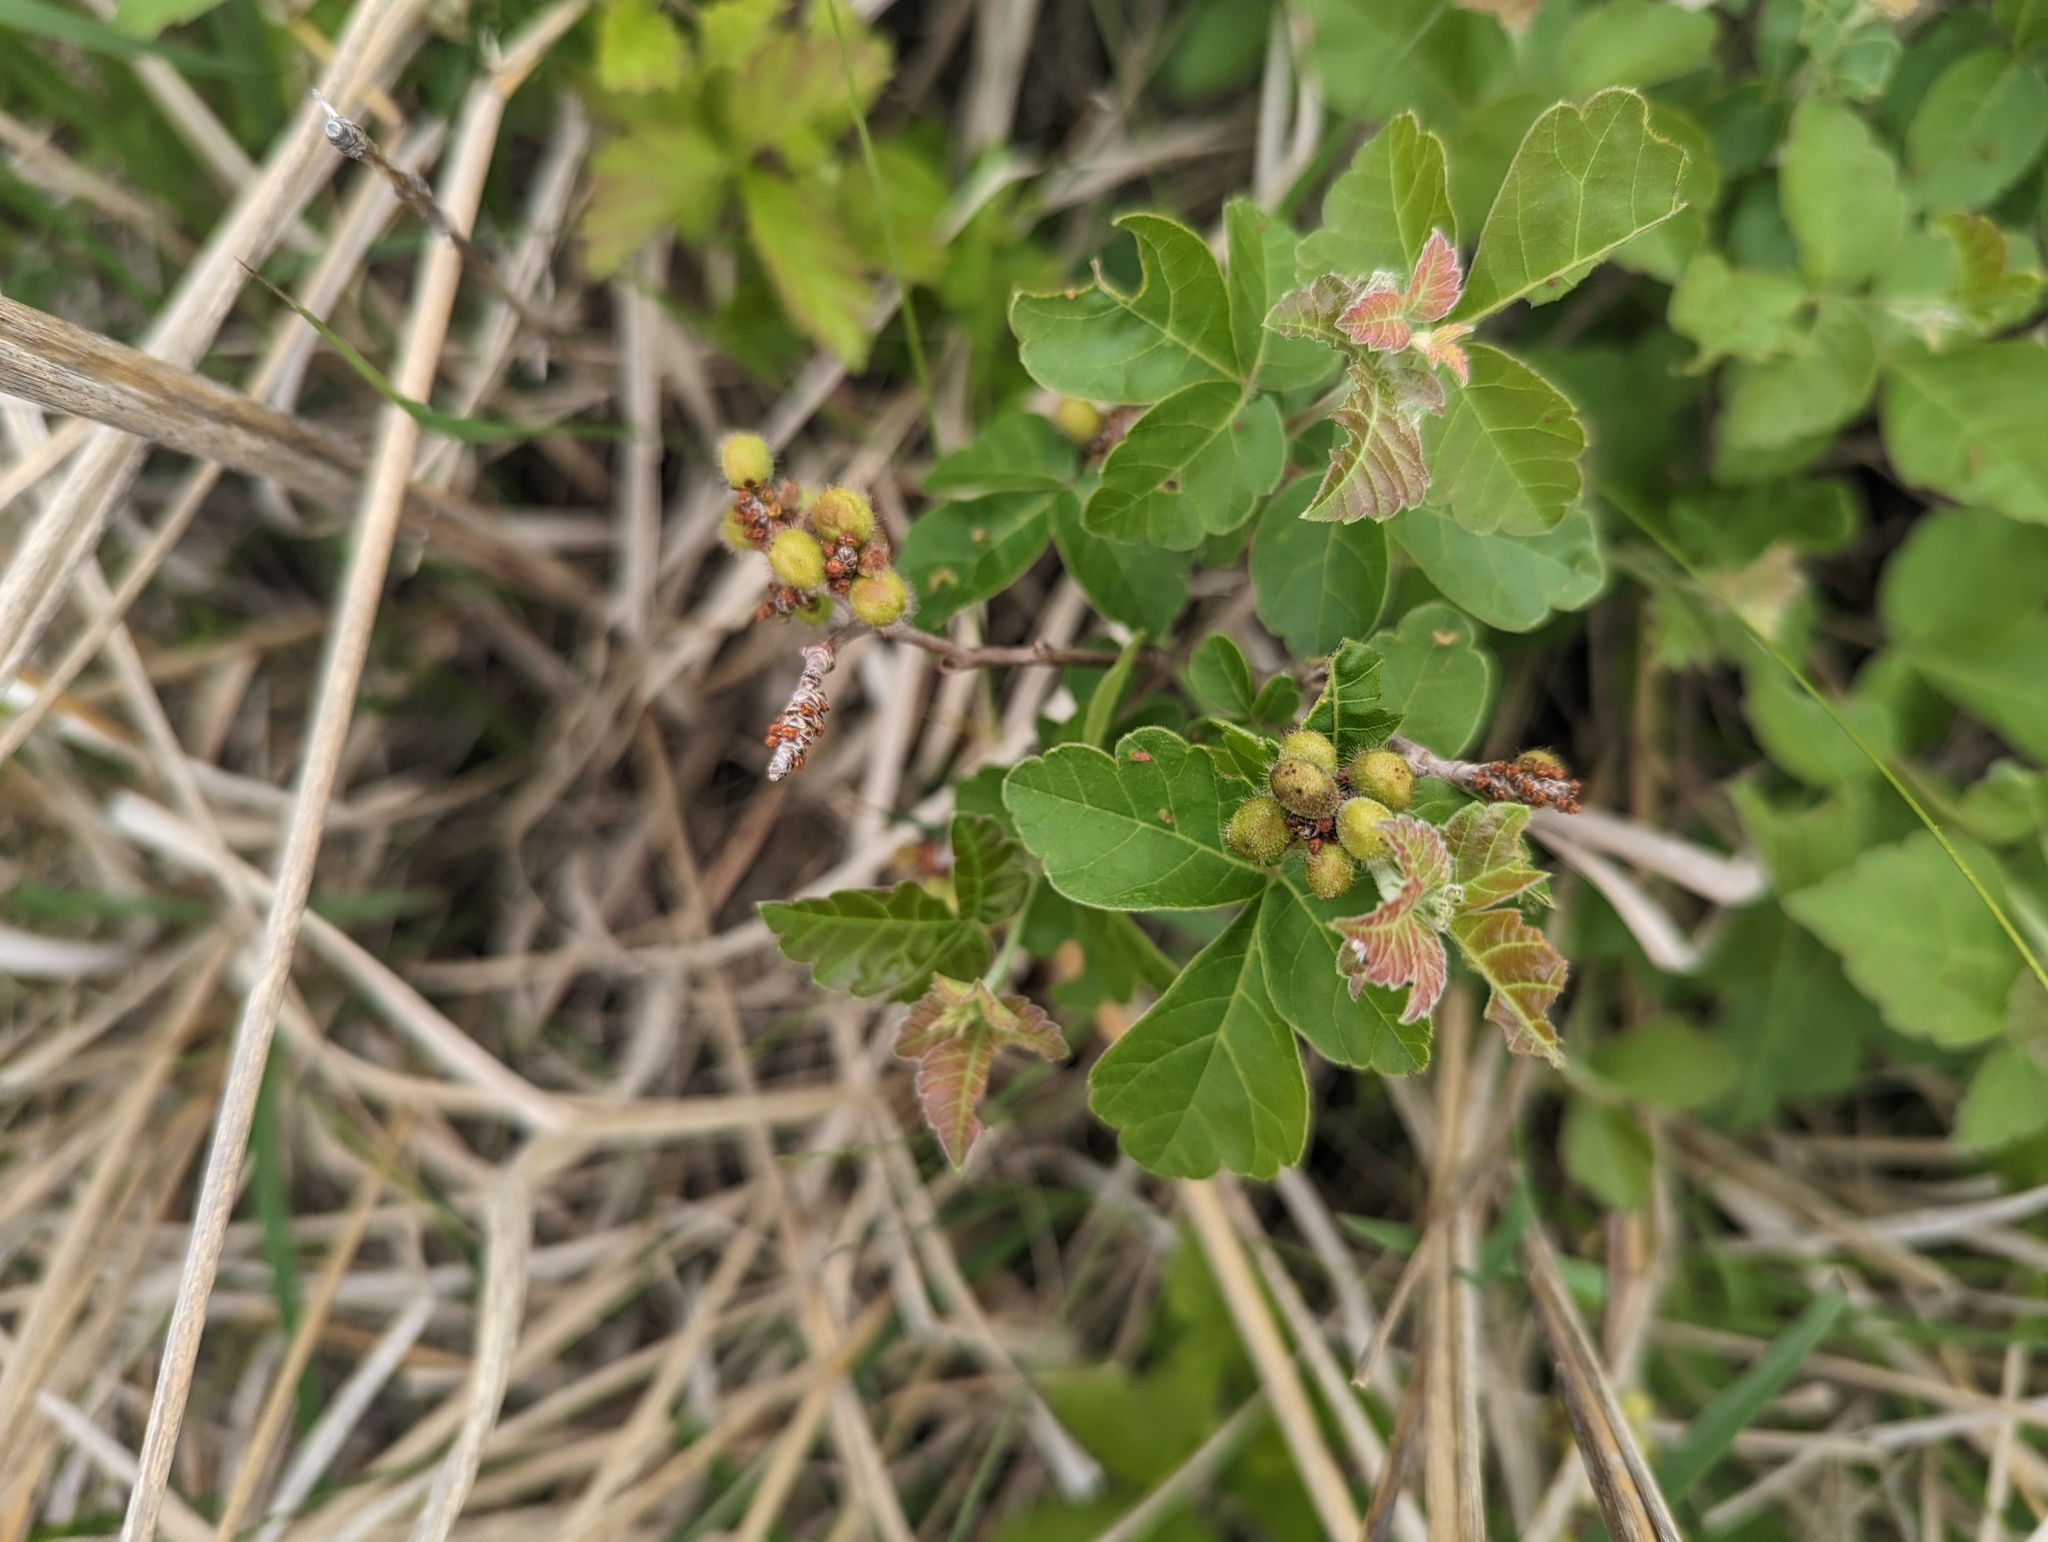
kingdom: Plantae
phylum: Tracheophyta
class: Magnoliopsida
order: Sapindales
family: Anacardiaceae
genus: Rhus
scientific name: Rhus aromatica
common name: Aromatic sumac
